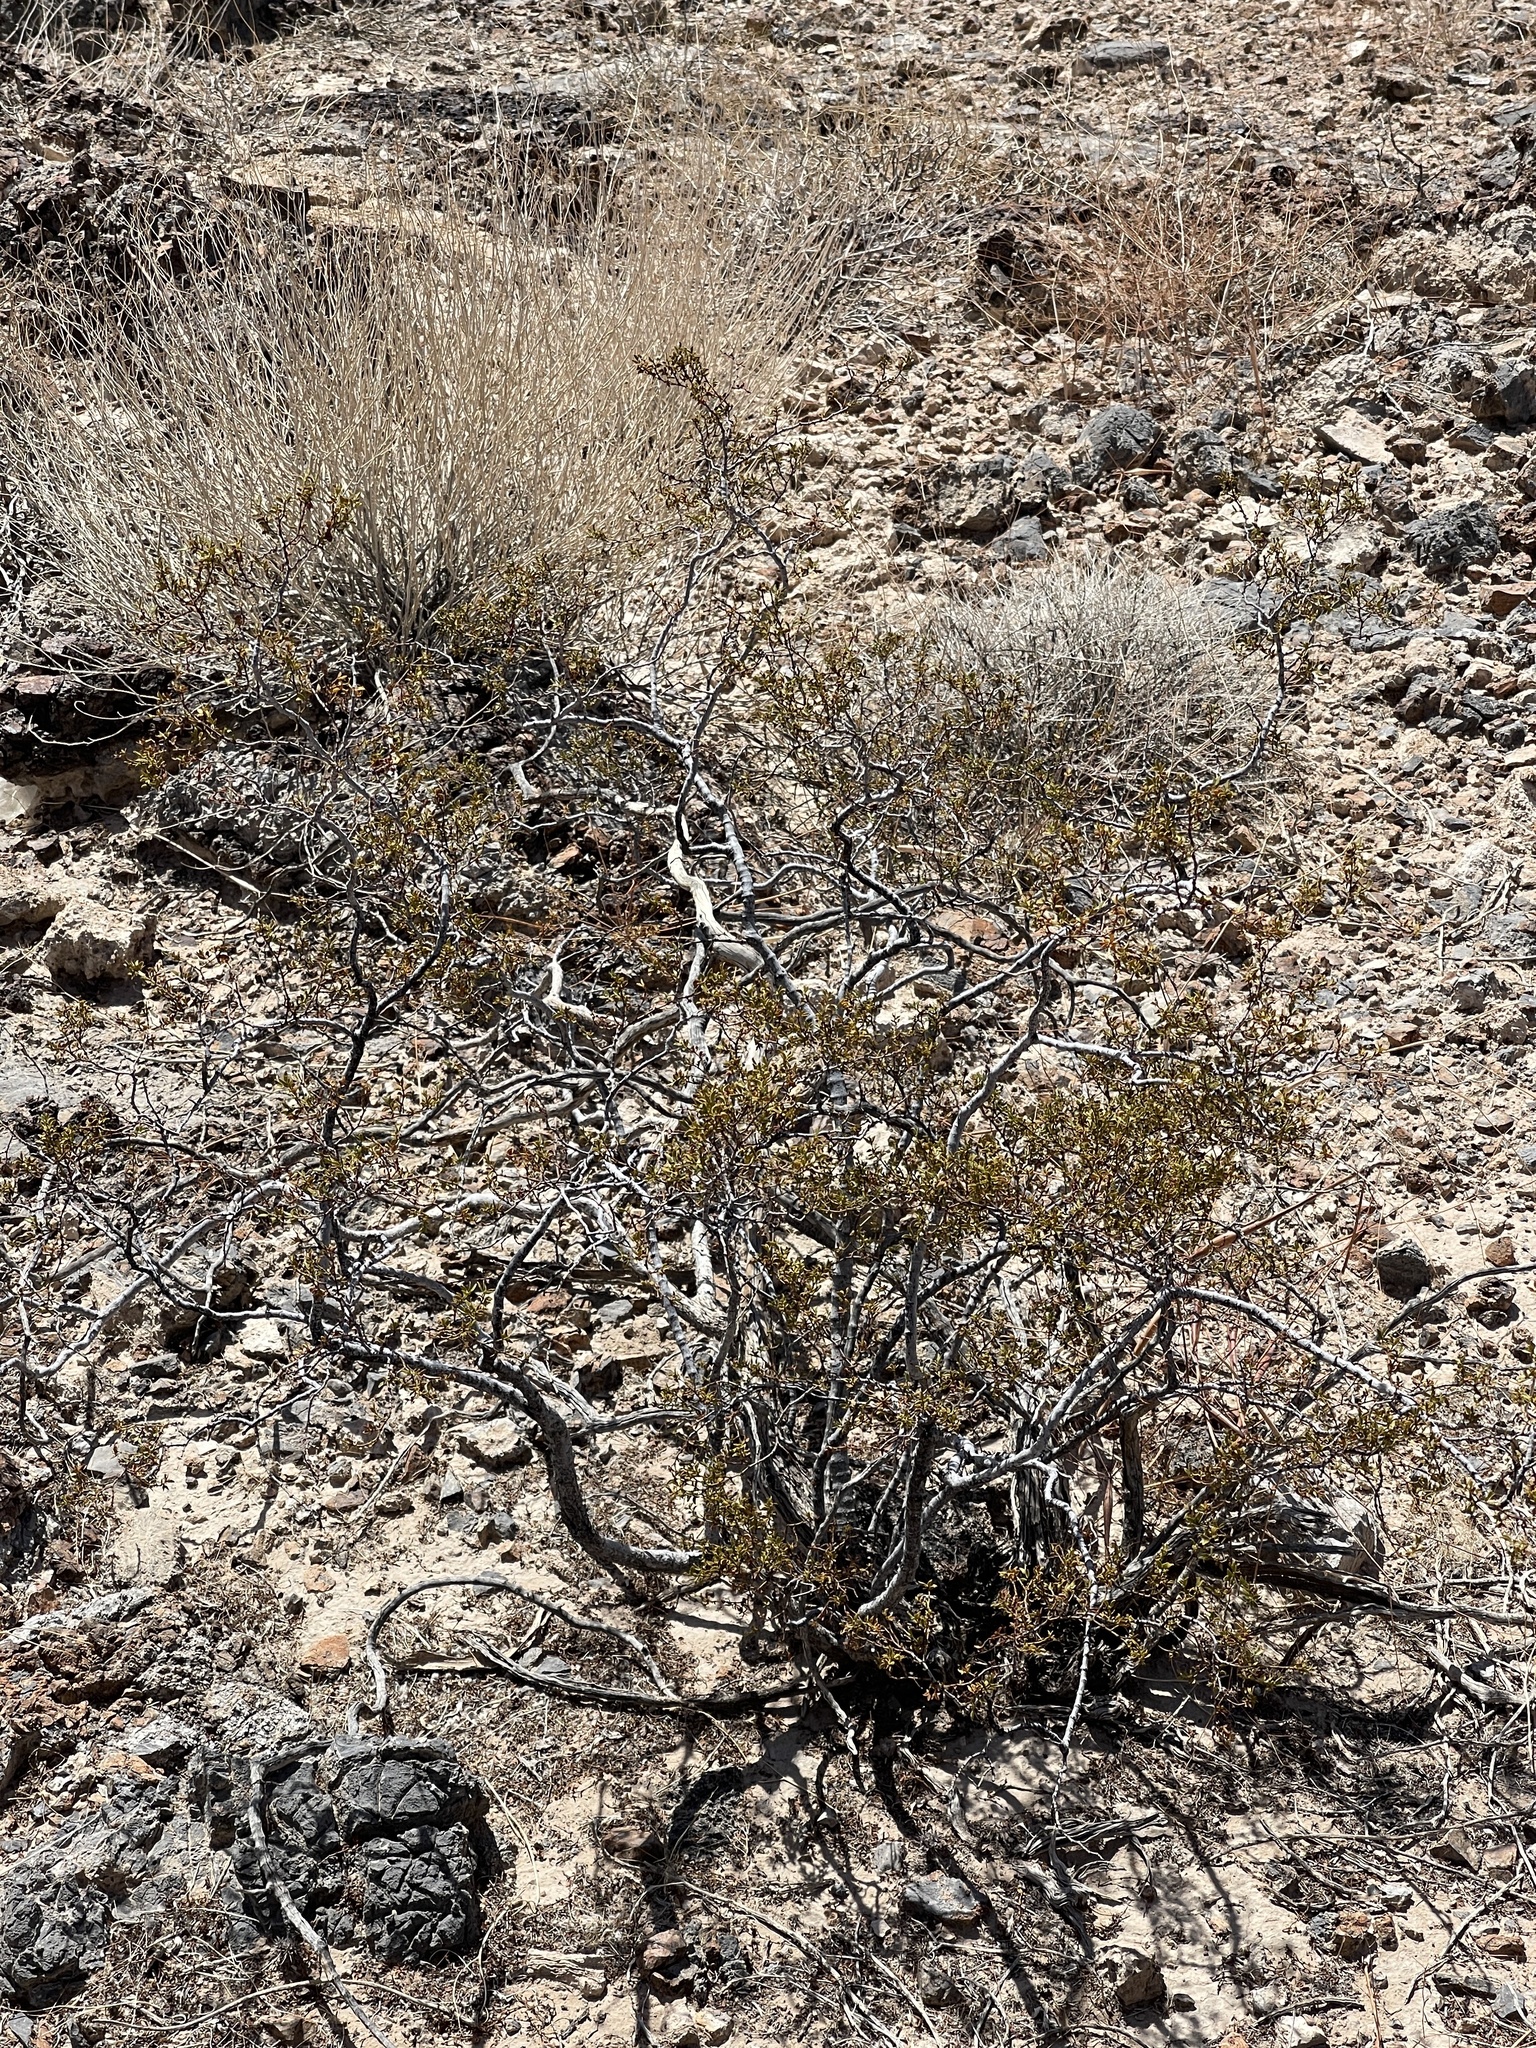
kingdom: Plantae
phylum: Tracheophyta
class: Magnoliopsida
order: Zygophyllales
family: Zygophyllaceae
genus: Larrea
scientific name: Larrea tridentata
